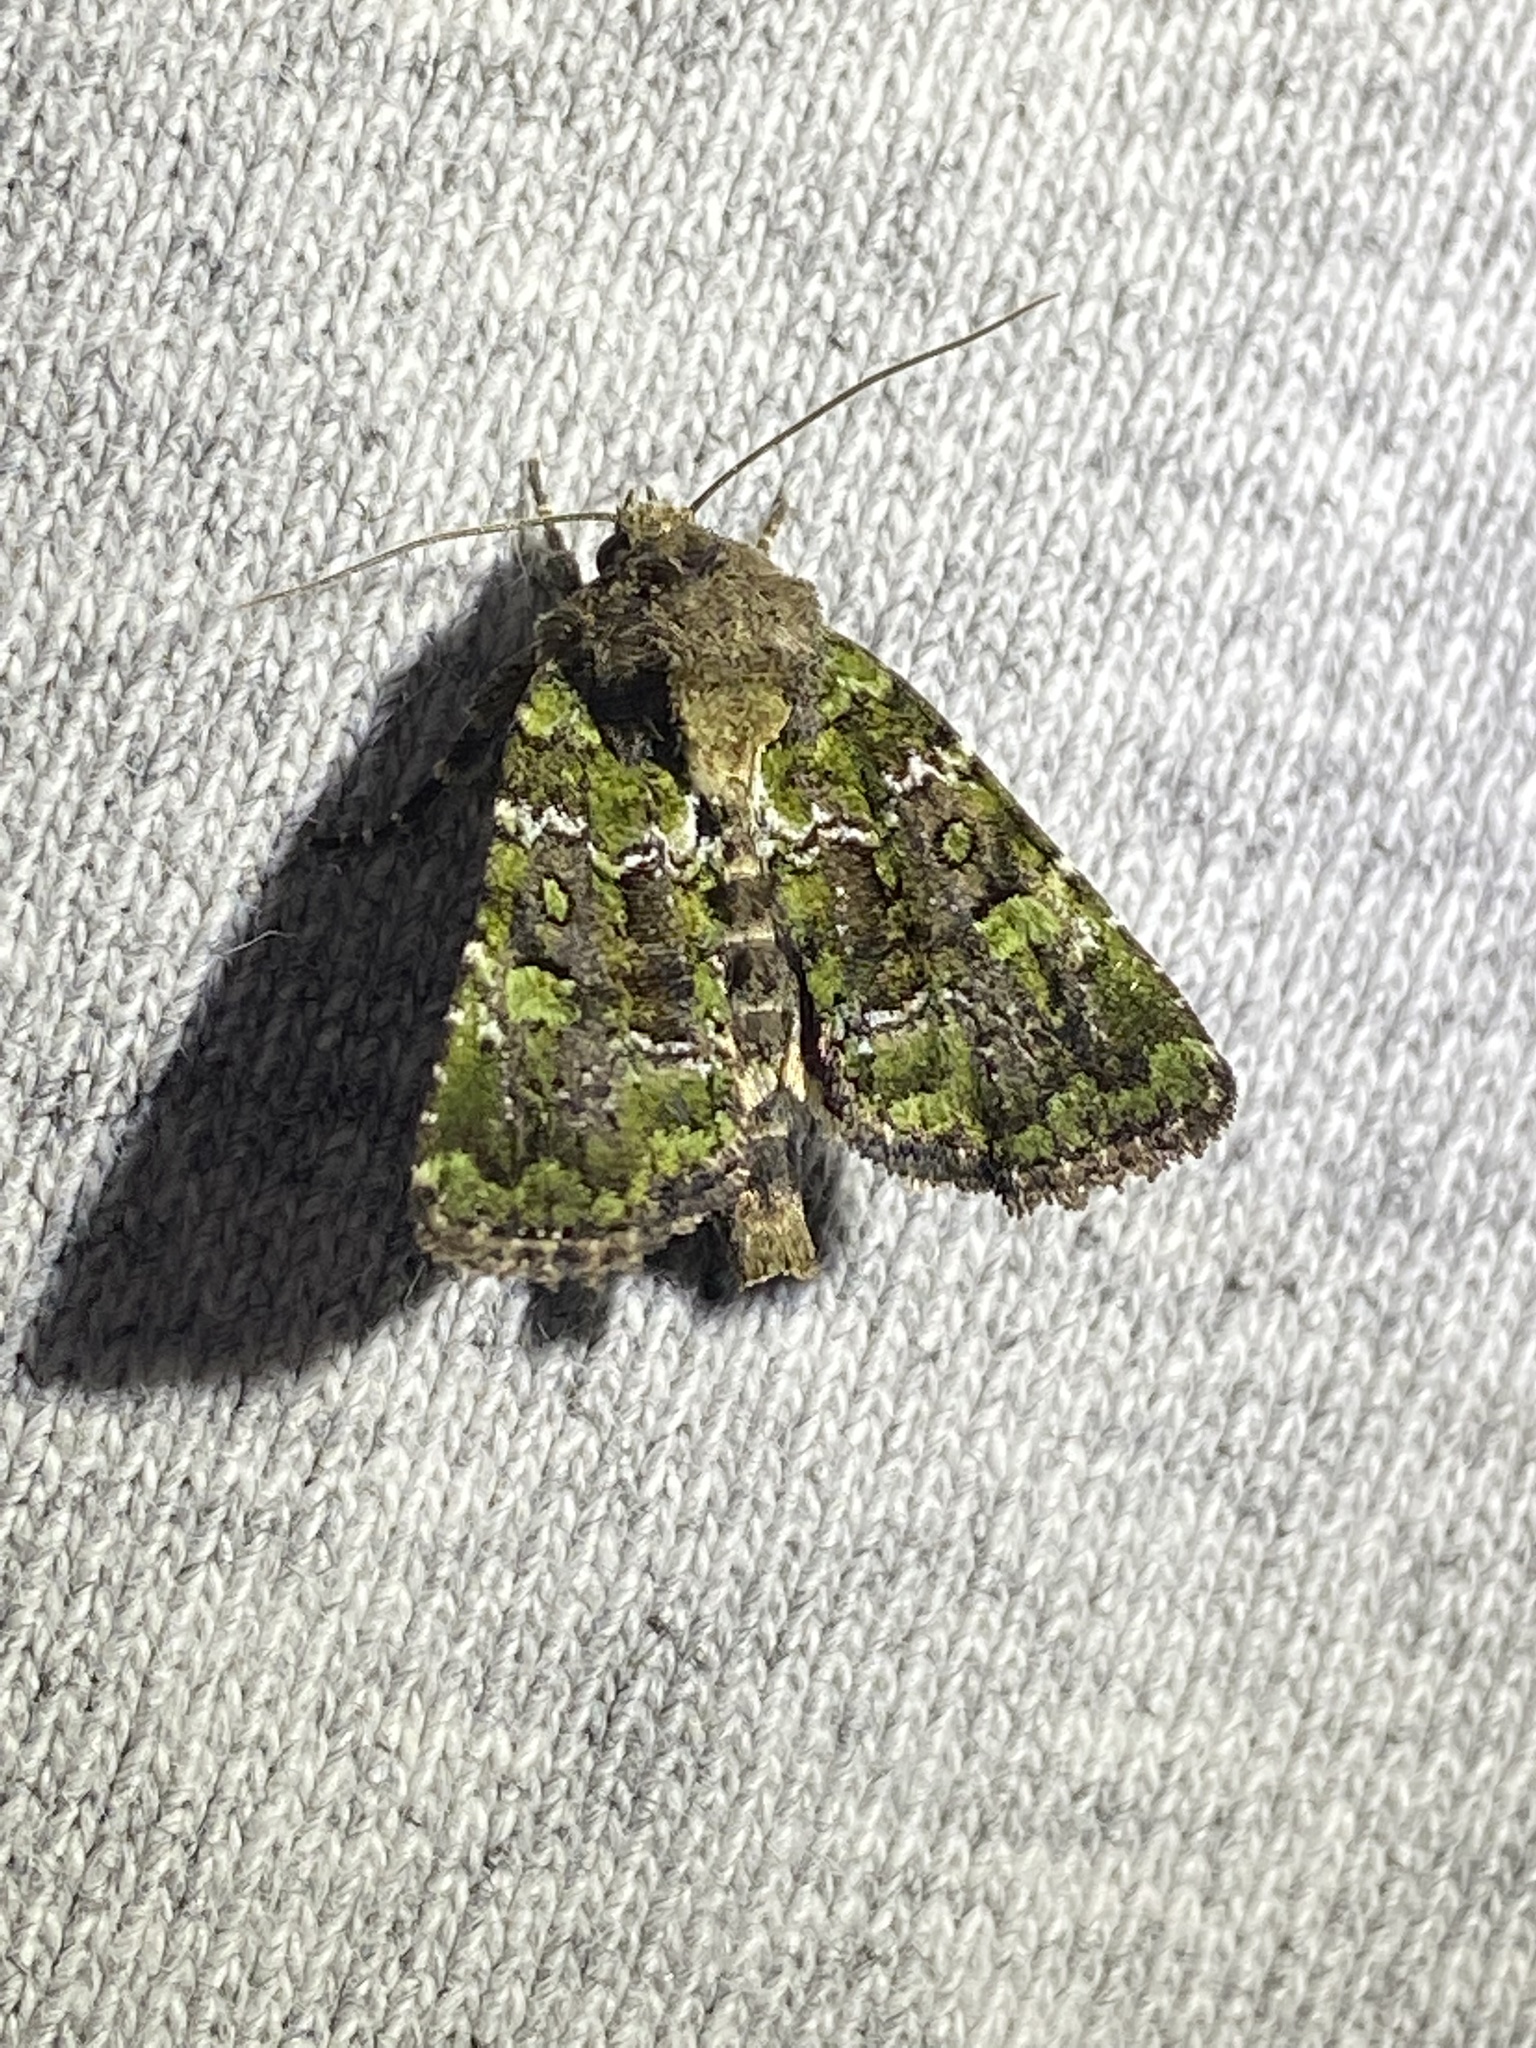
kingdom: Animalia
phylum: Arthropoda
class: Insecta
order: Lepidoptera
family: Noctuidae
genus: Oligia
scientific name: Oligia chlorostigma
